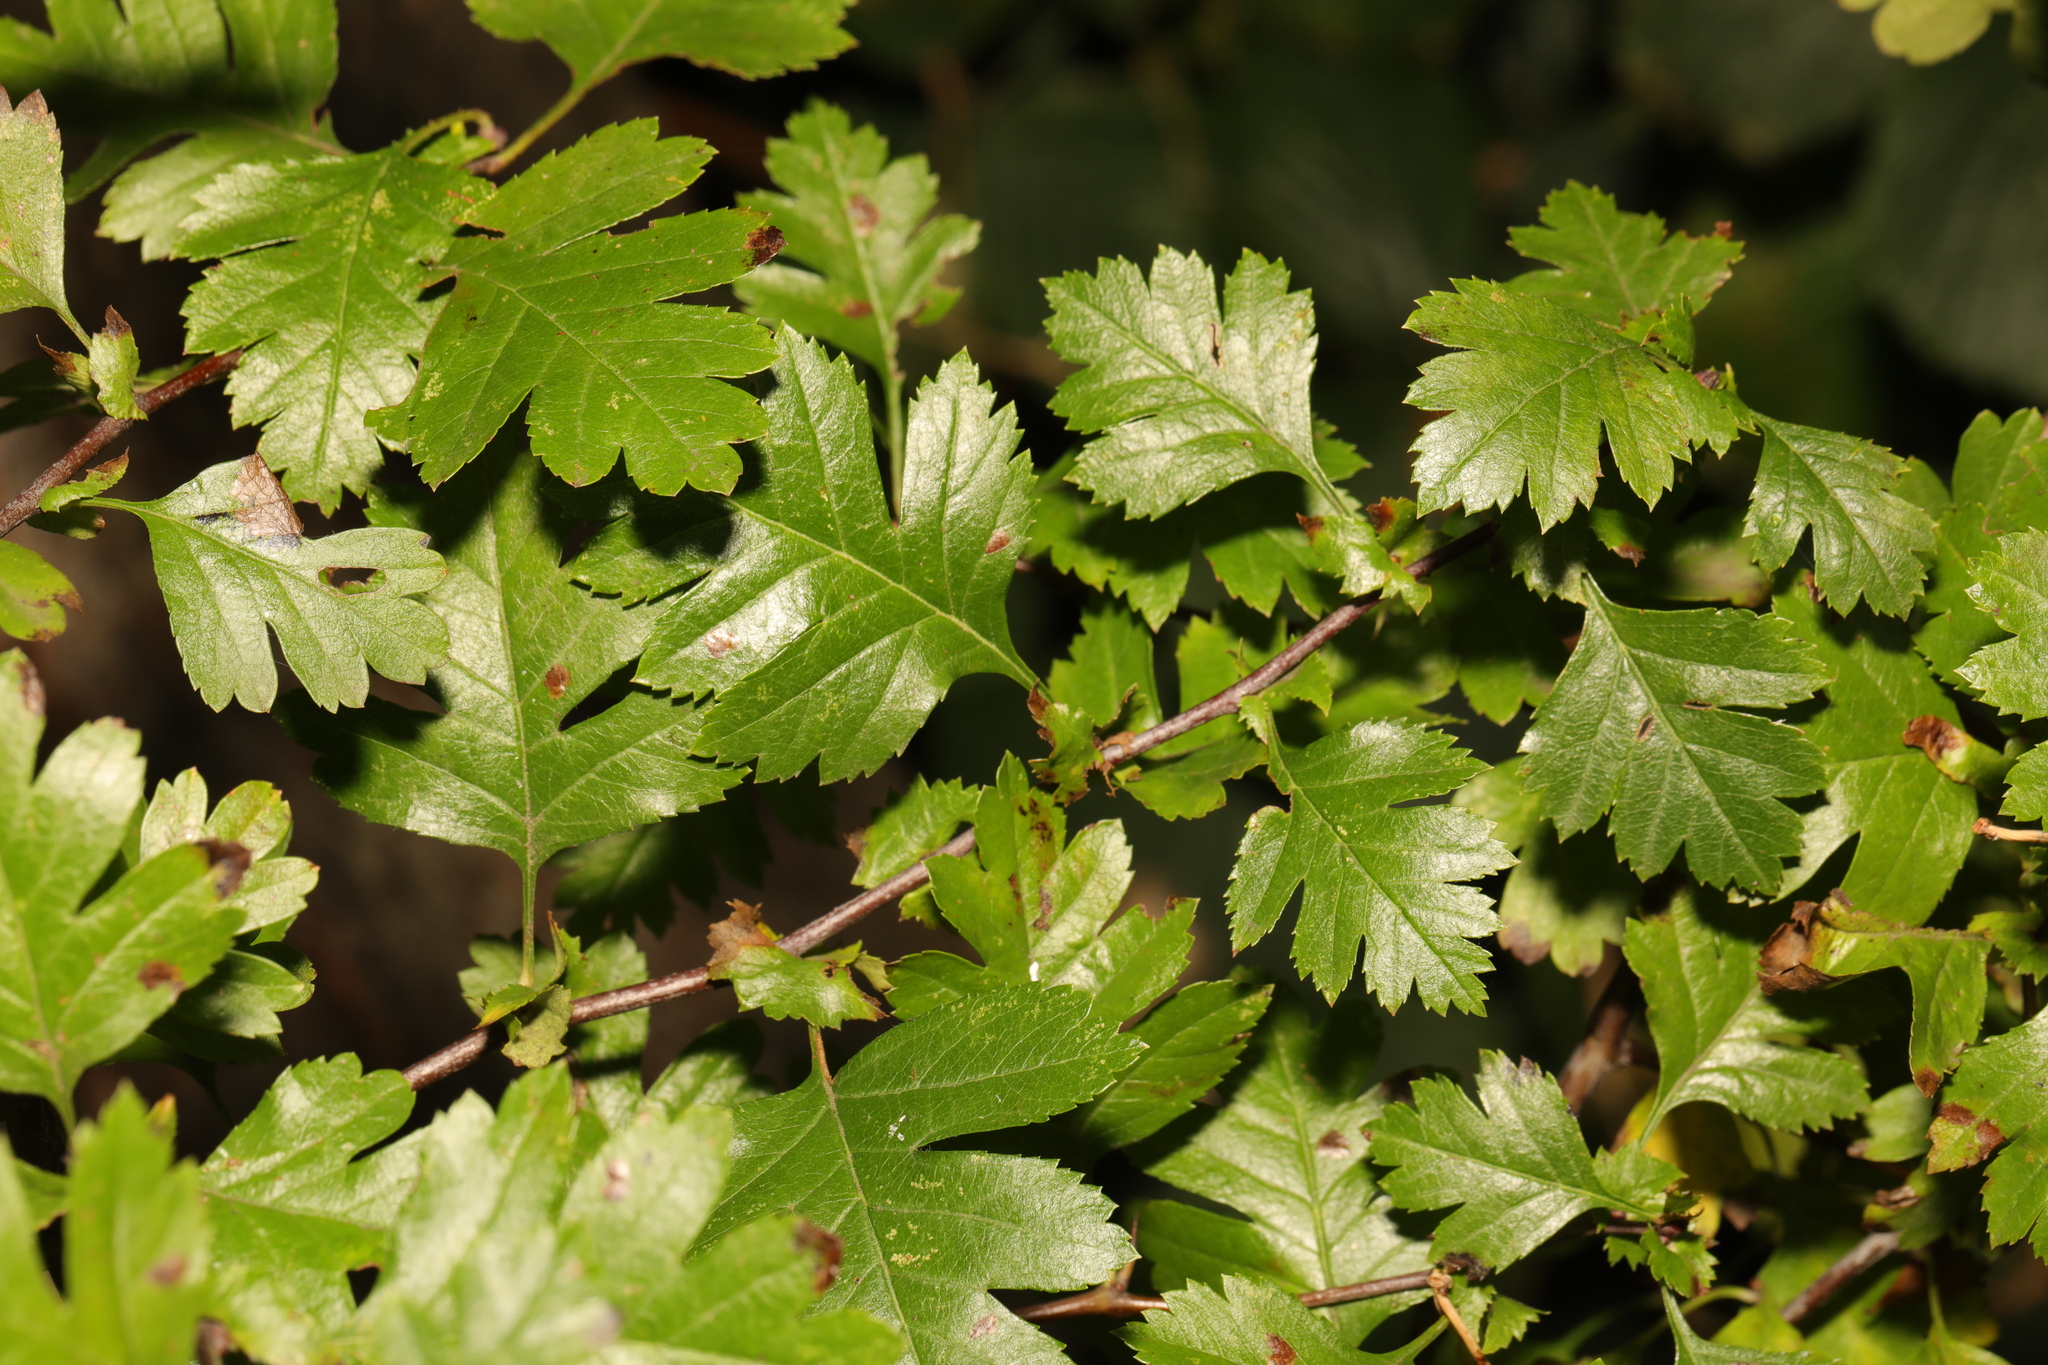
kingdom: Plantae
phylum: Tracheophyta
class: Magnoliopsida
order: Rosales
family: Rosaceae
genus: Crataegus
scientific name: Crataegus monogyna
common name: Hawthorn
